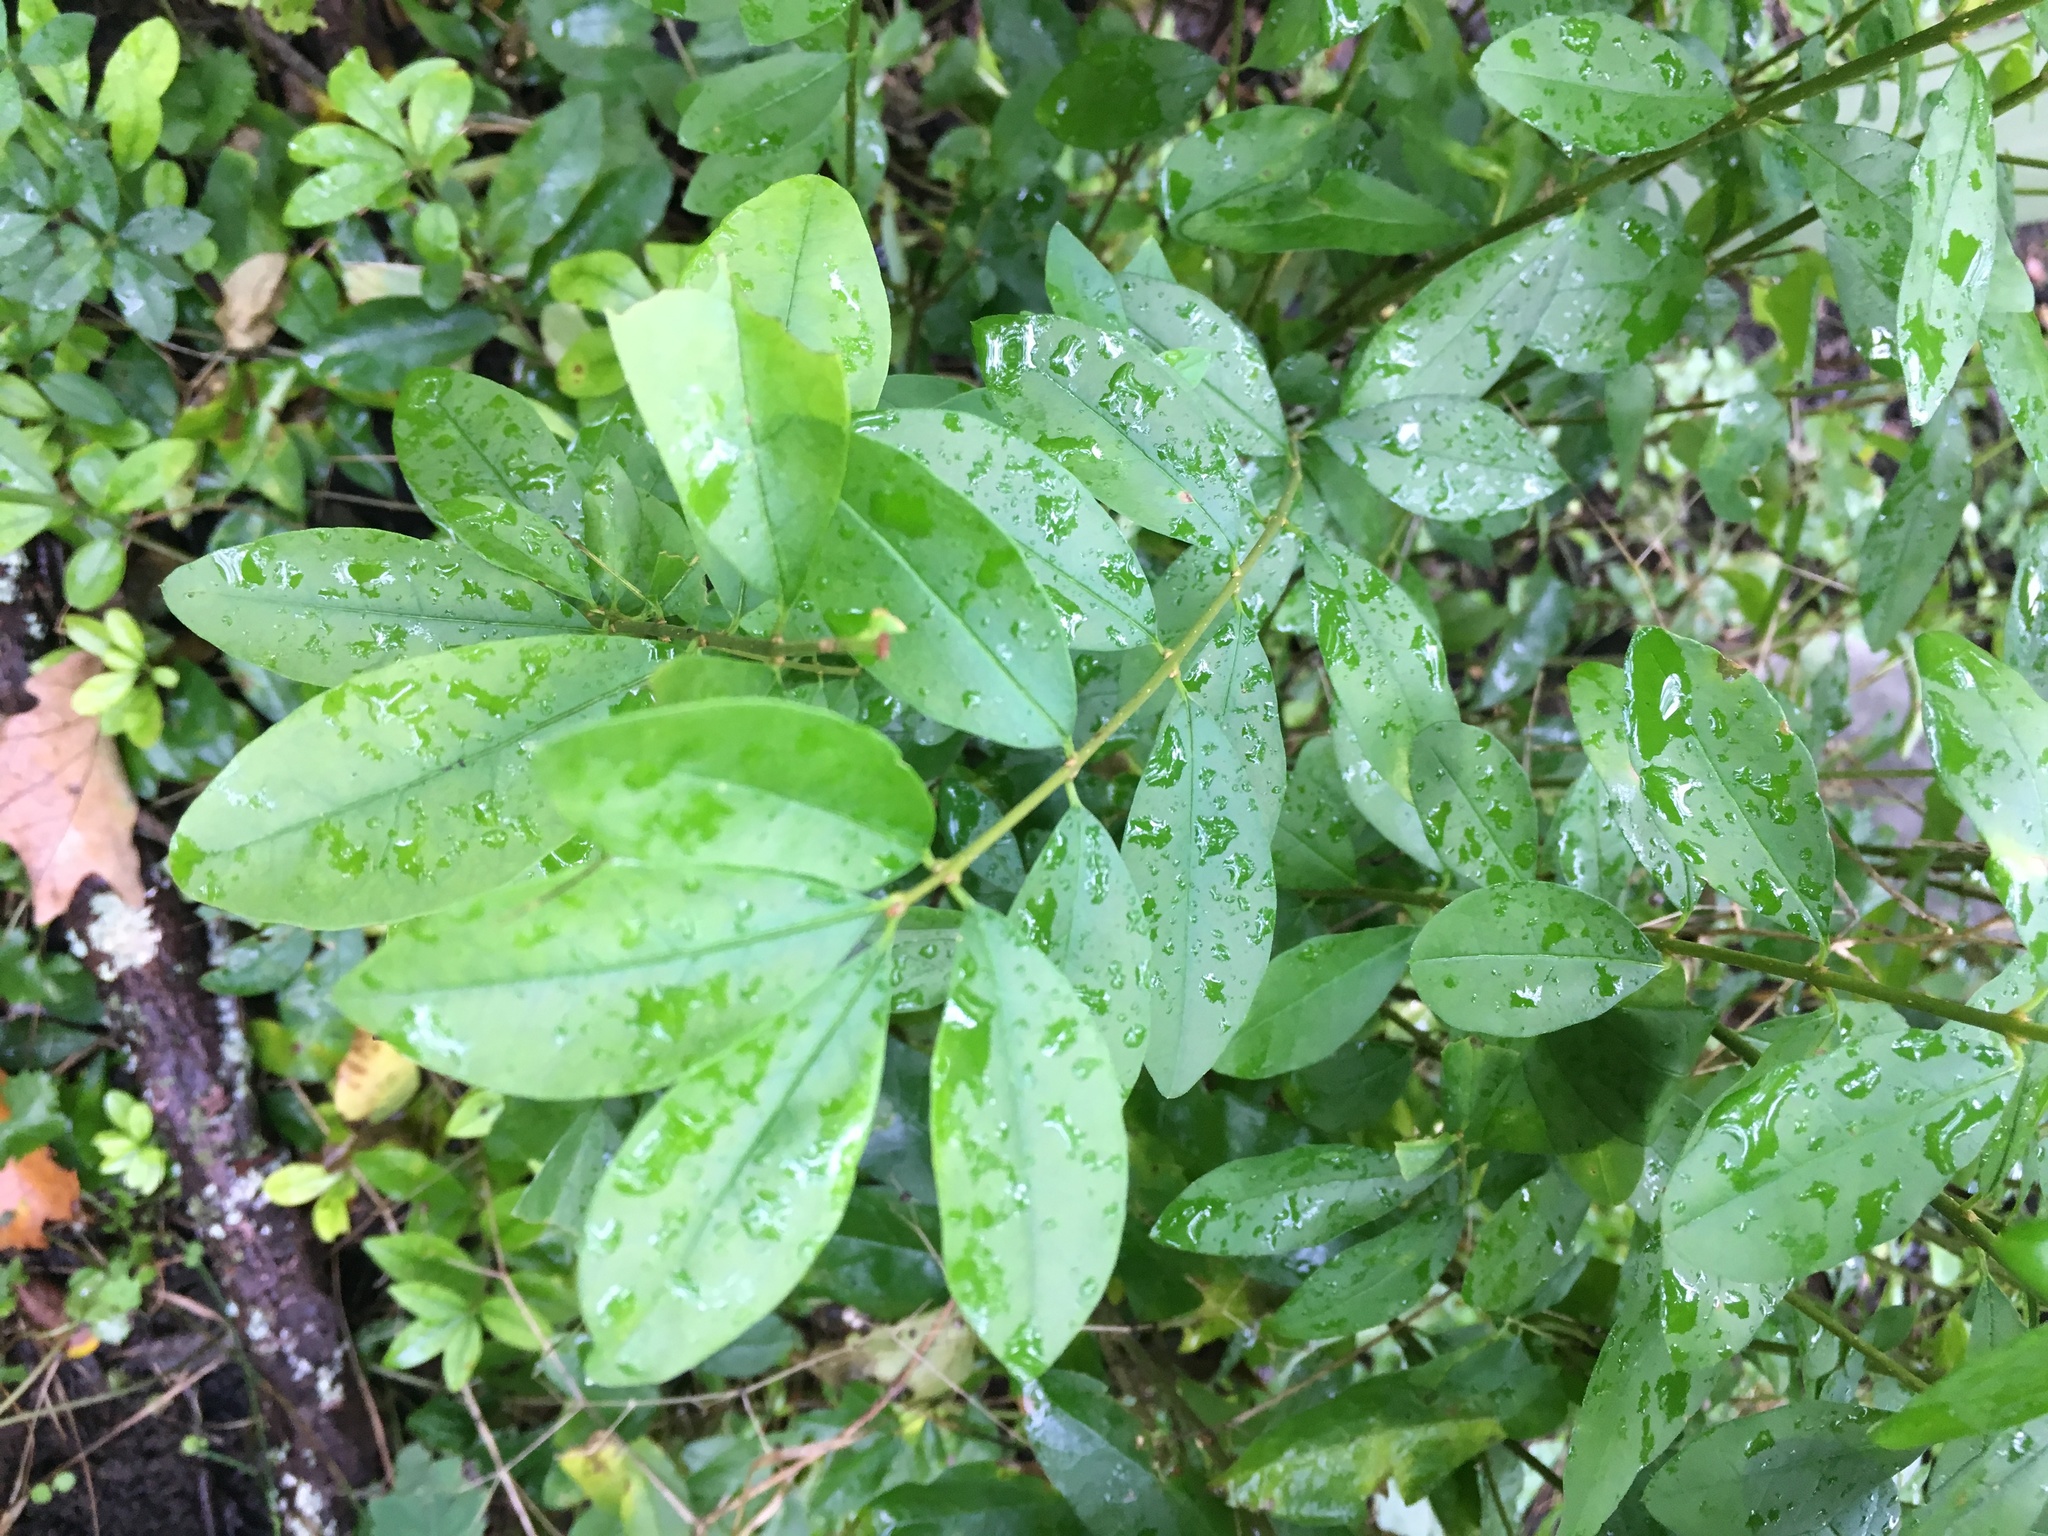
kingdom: Plantae
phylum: Tracheophyta
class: Magnoliopsida
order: Lamiales
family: Oleaceae
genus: Ligustrum
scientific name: Ligustrum obtusifolium
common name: Border privet
